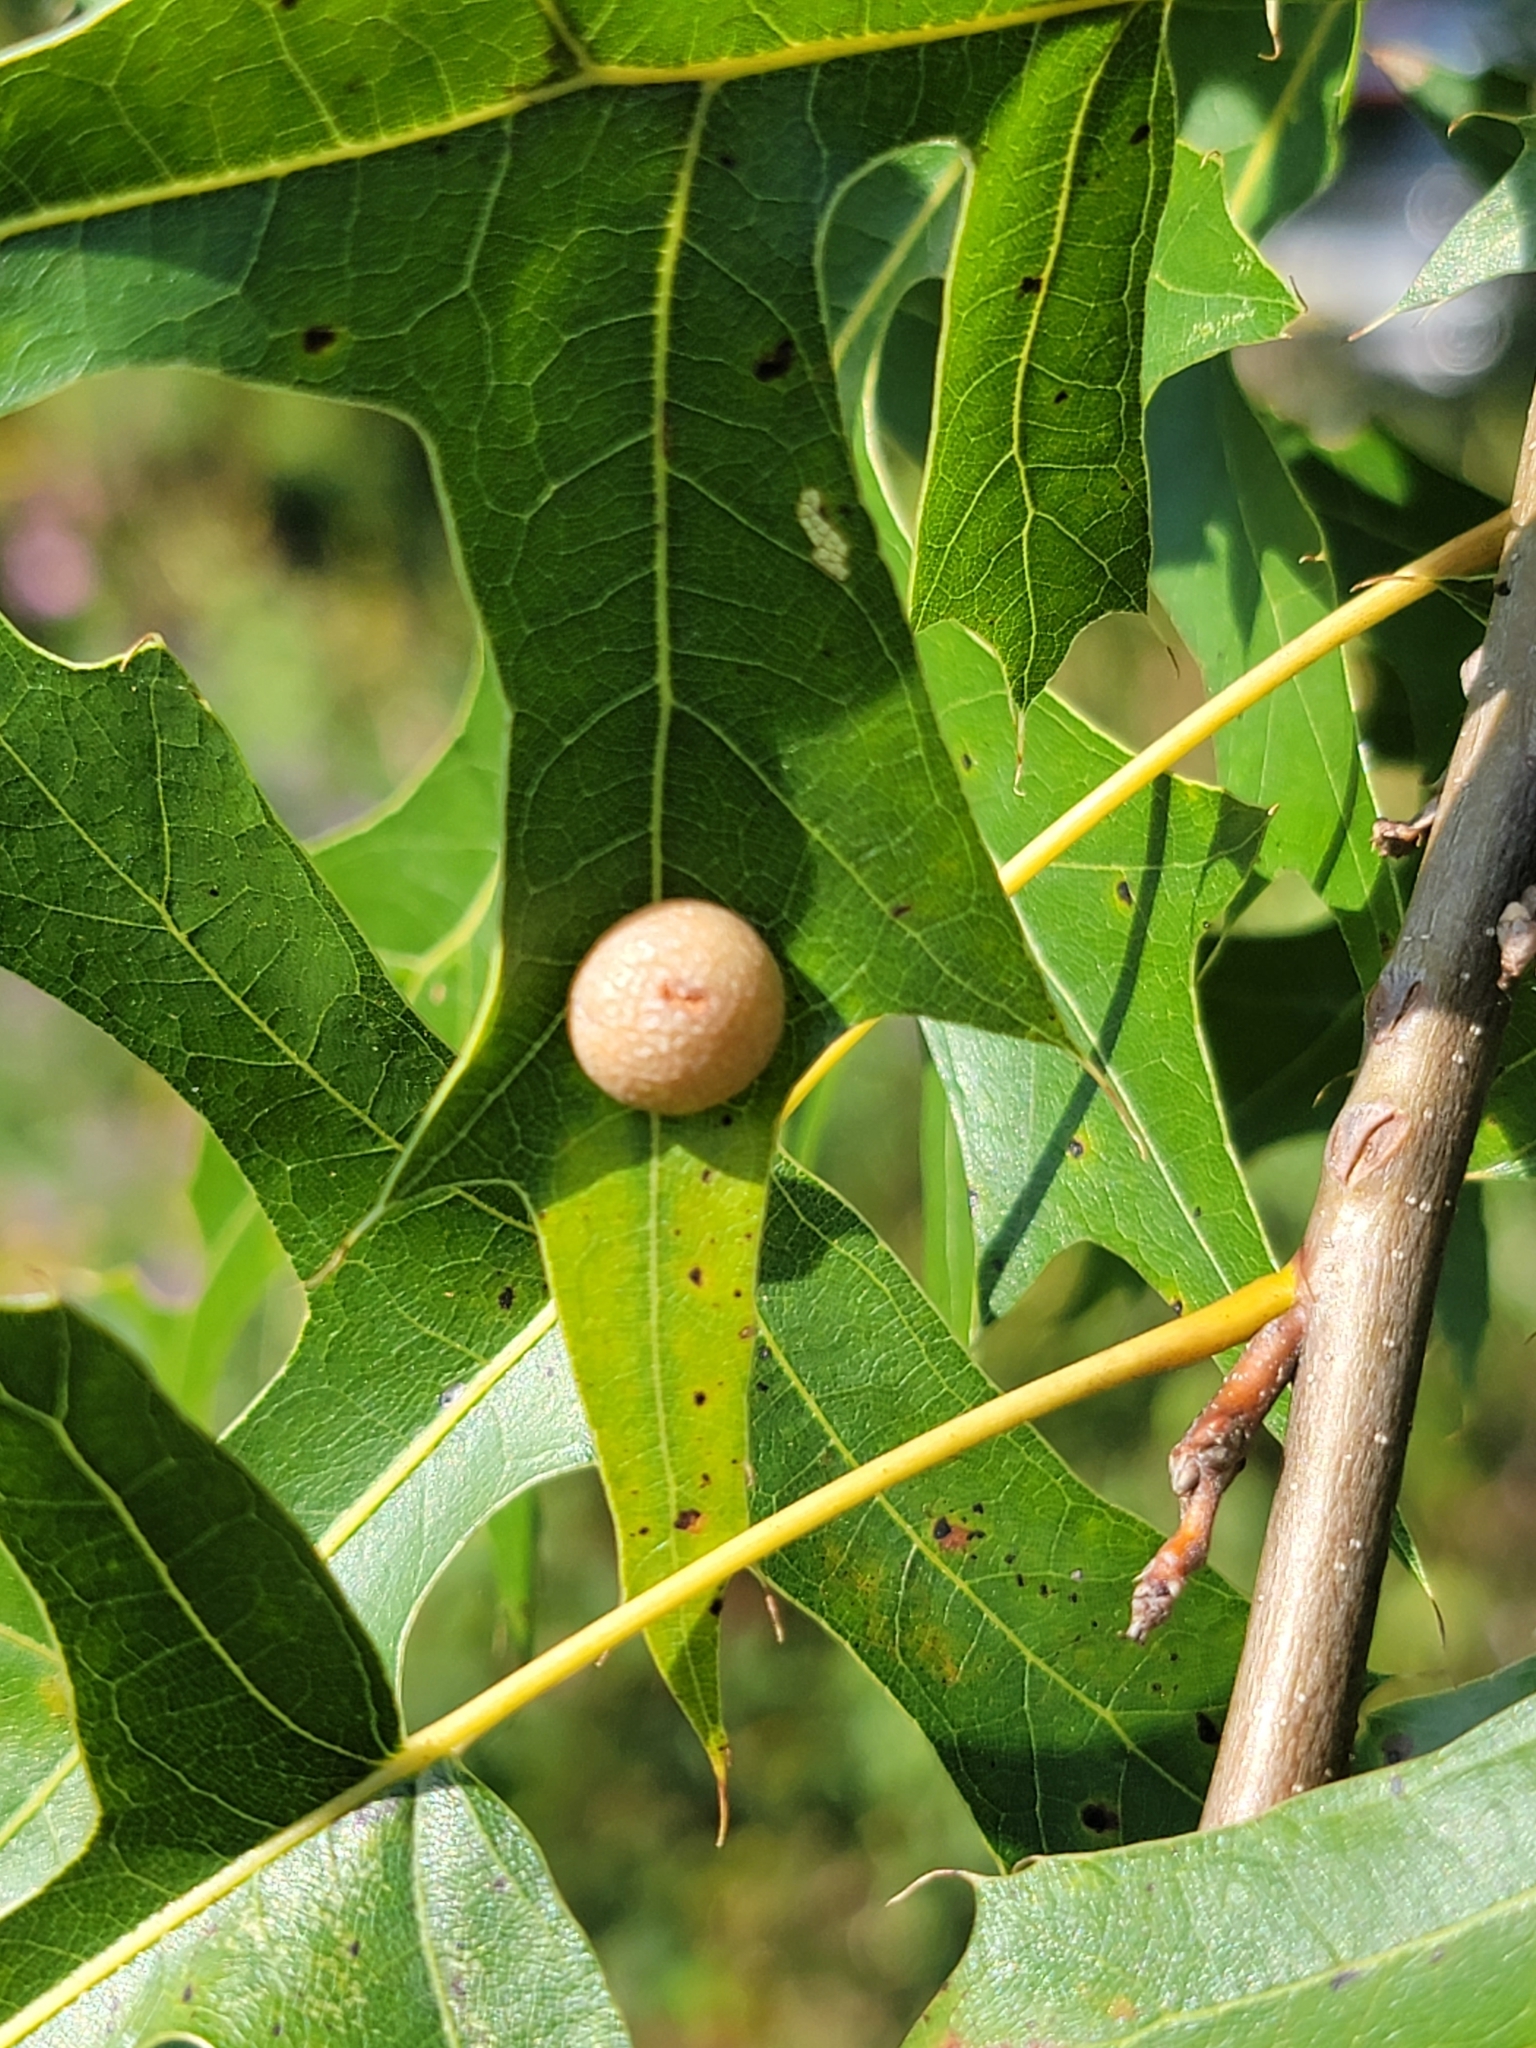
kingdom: Animalia
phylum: Arthropoda
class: Insecta
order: Diptera
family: Cecidomyiidae
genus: Polystepha
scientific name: Polystepha pilulae
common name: Oak leaf gall midge
